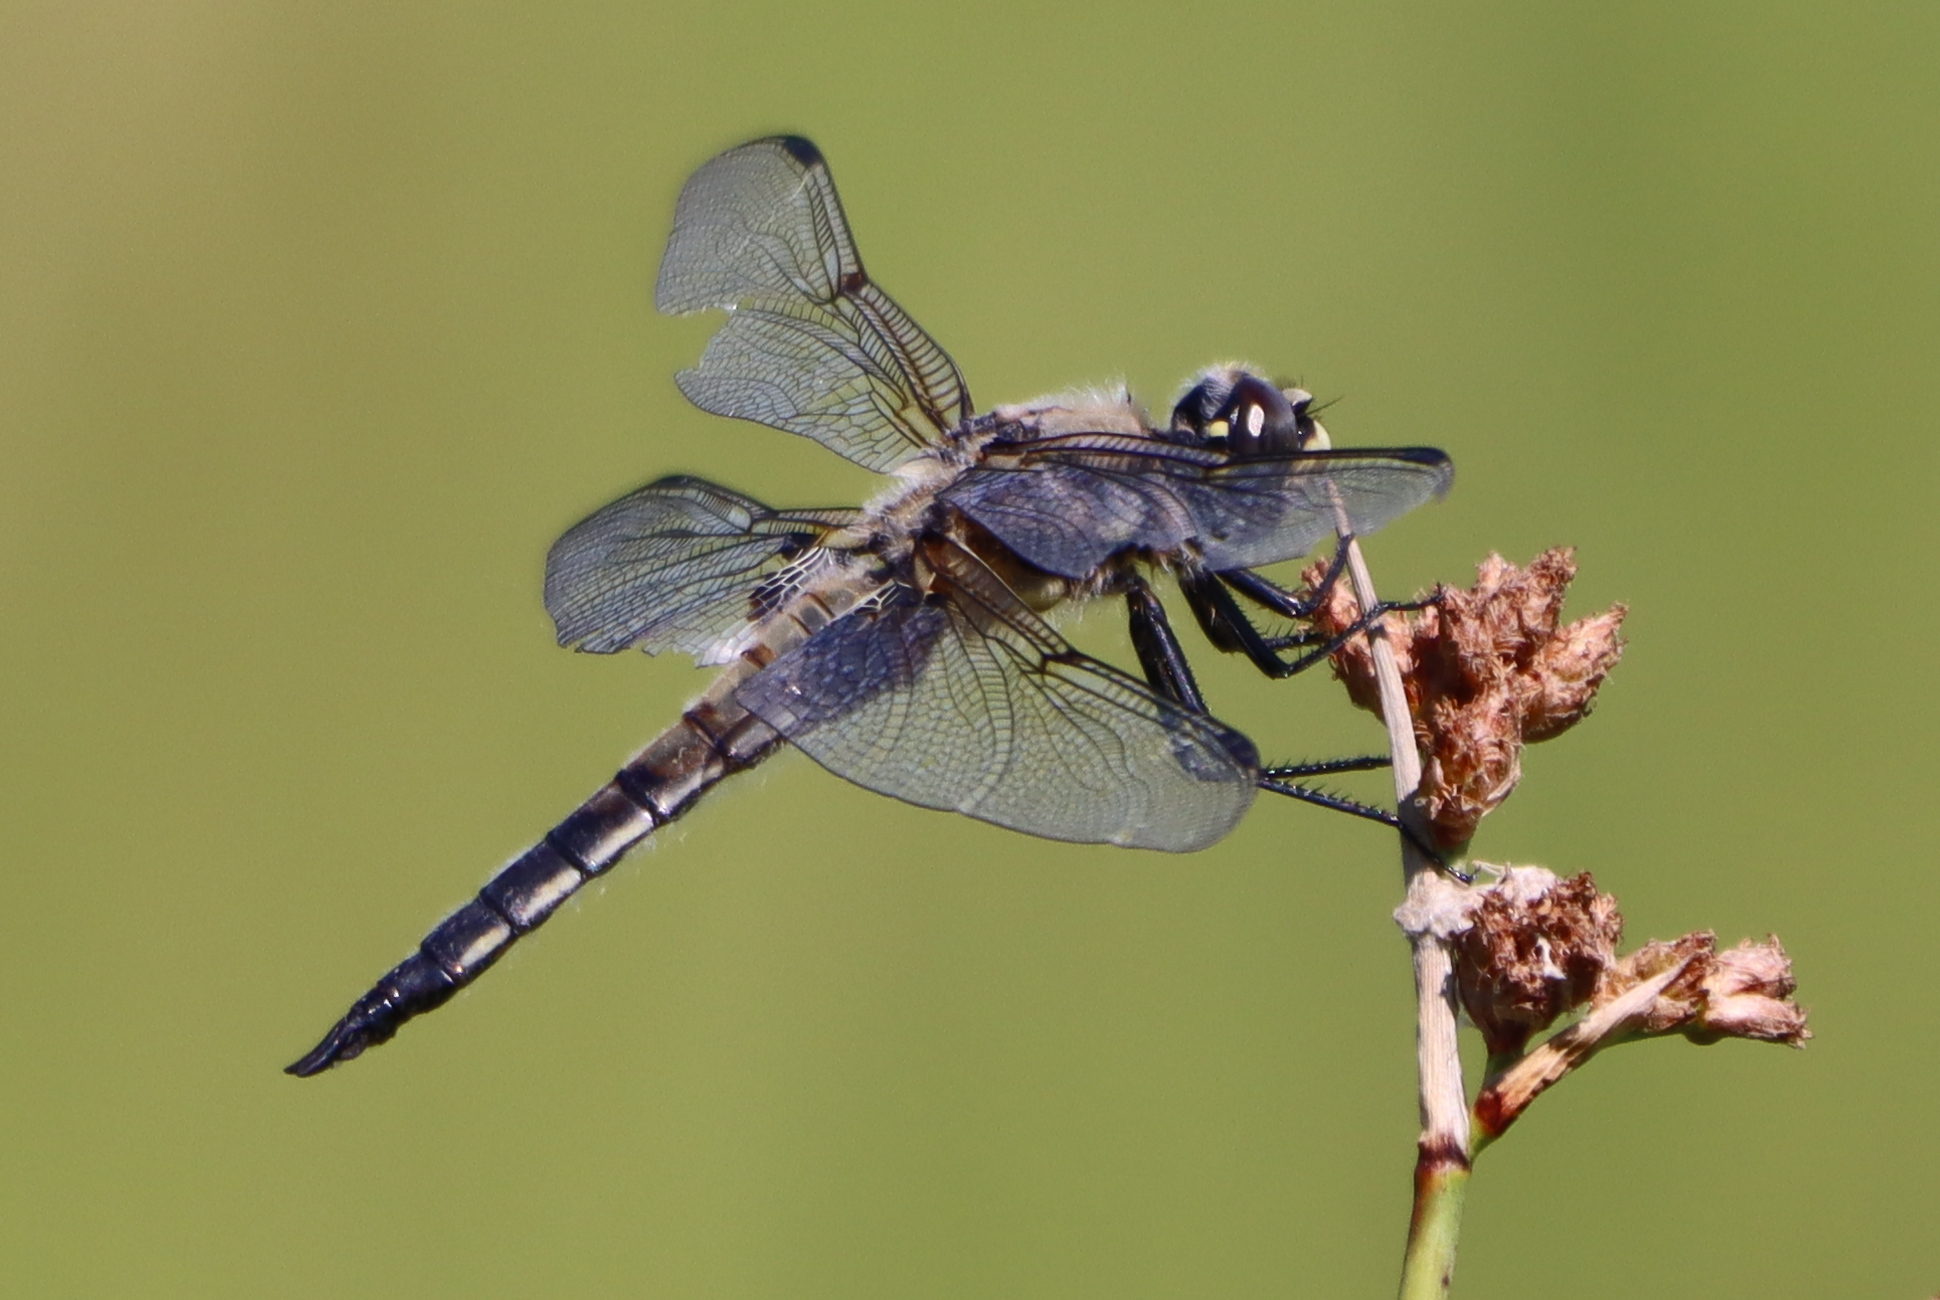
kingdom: Animalia
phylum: Arthropoda
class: Insecta
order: Odonata
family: Libellulidae
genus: Libellula
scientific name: Libellula quadrimaculata
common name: Four-spotted chaser
